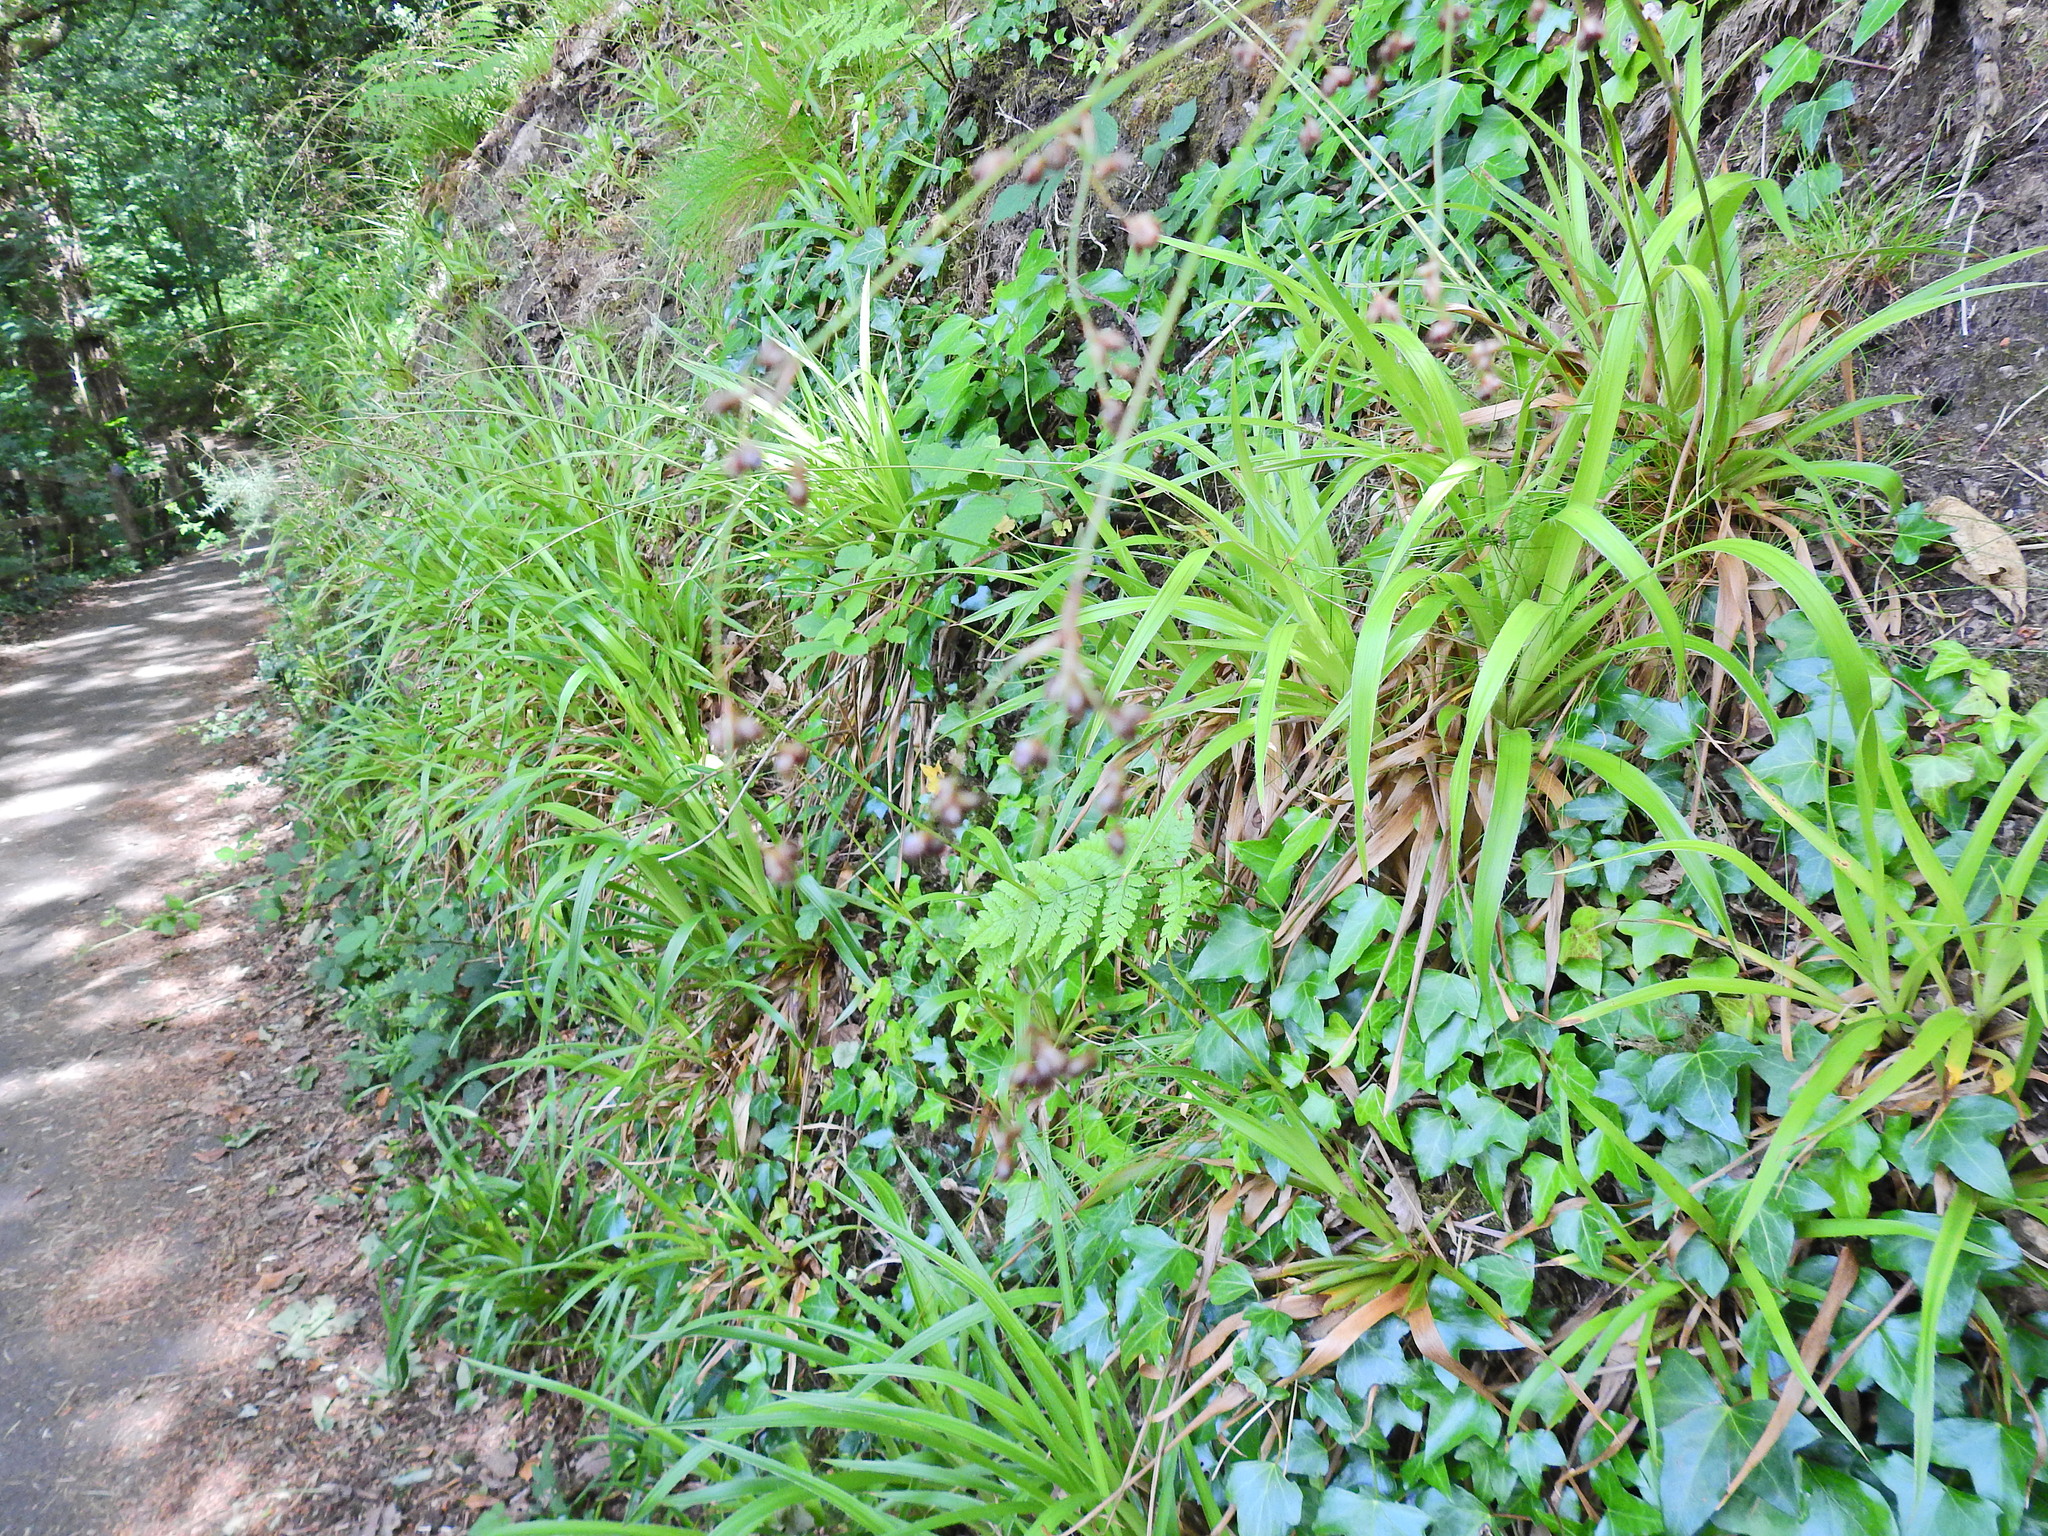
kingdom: Plantae
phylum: Tracheophyta
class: Liliopsida
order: Poales
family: Juncaceae
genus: Luzula
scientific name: Luzula sylvatica
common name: Great wood-rush
